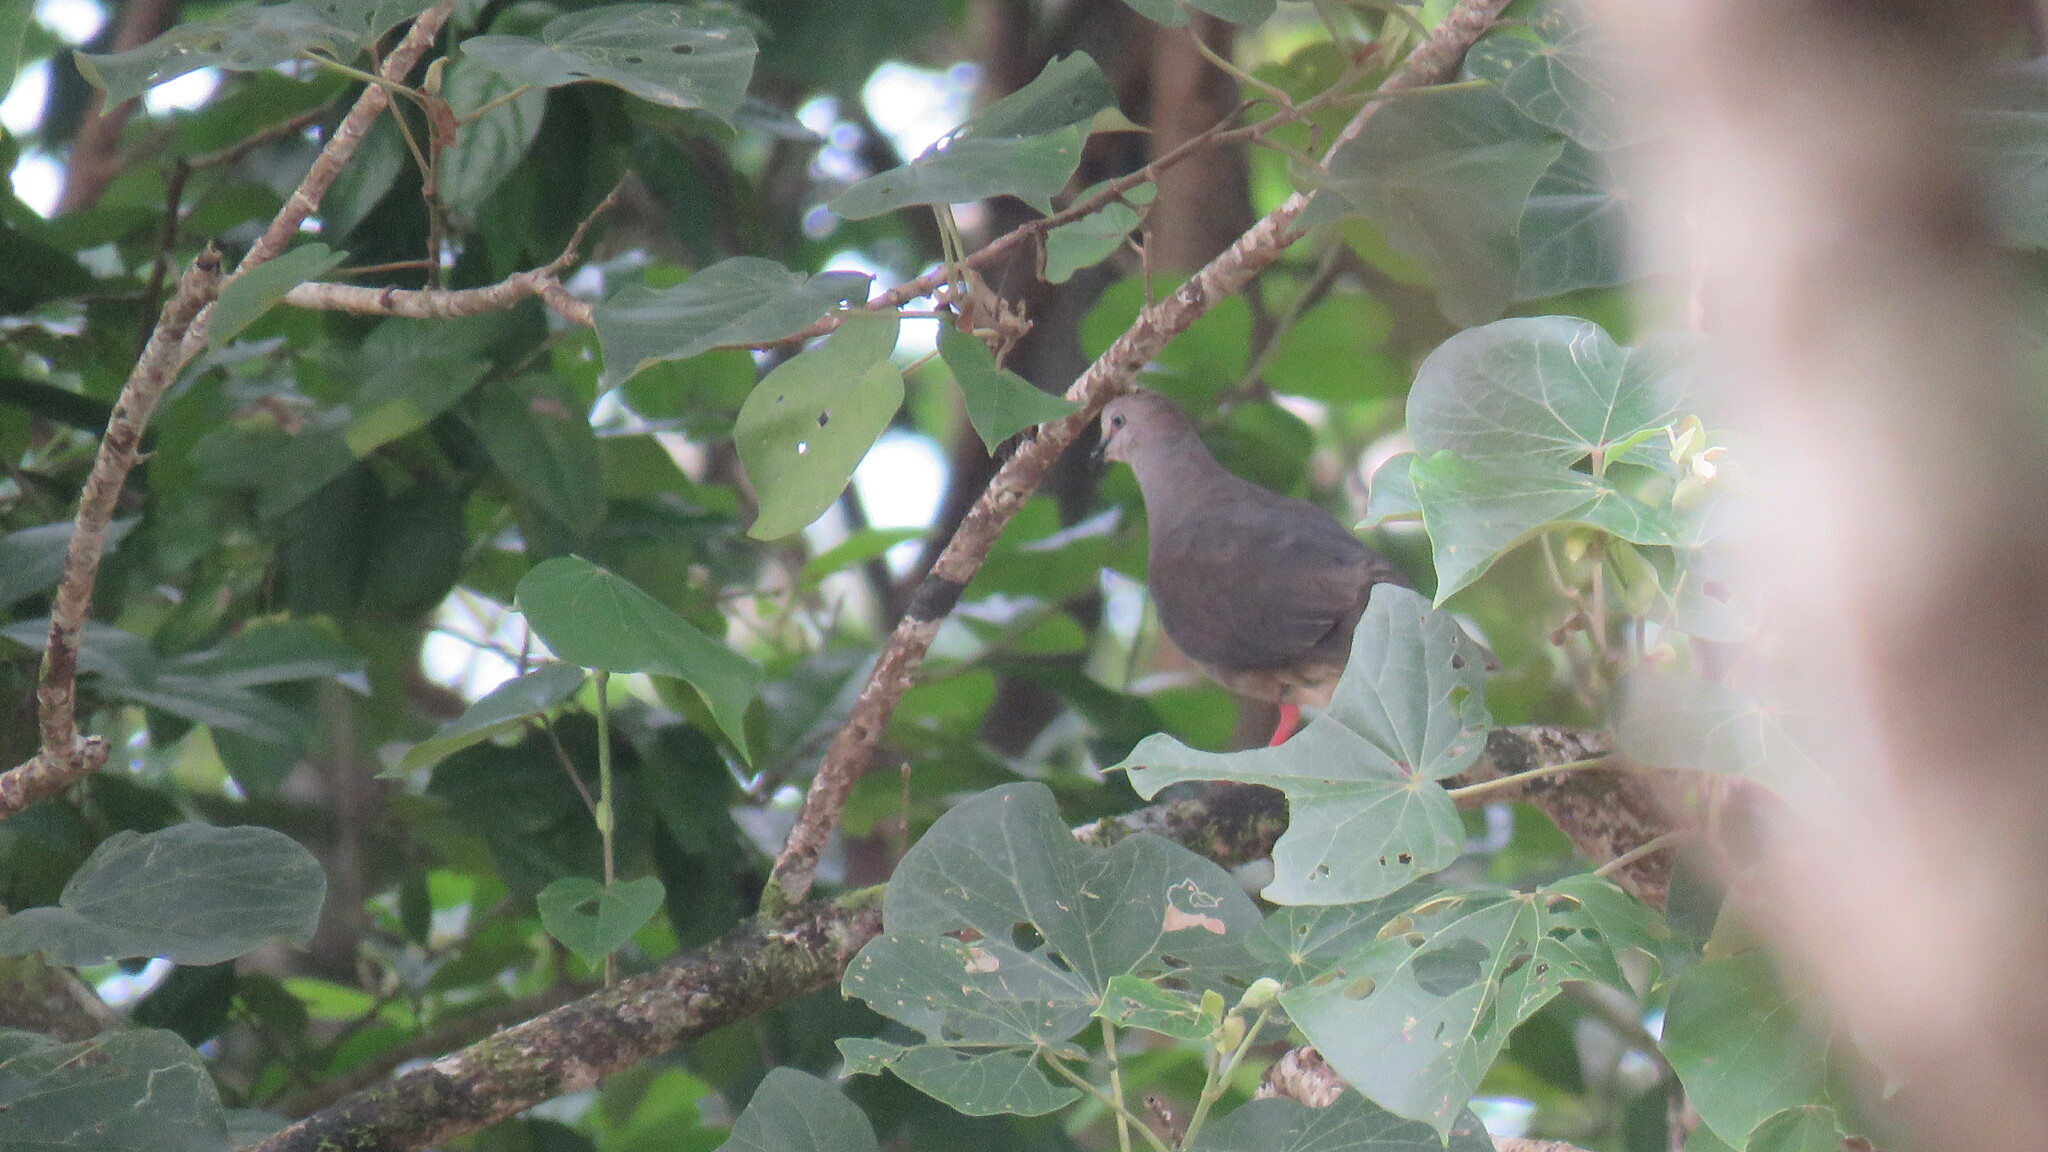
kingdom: Animalia
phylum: Chordata
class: Aves
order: Columbiformes
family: Columbidae
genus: Leptotila
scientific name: Leptotila cassinii
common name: Grey-chested dove
